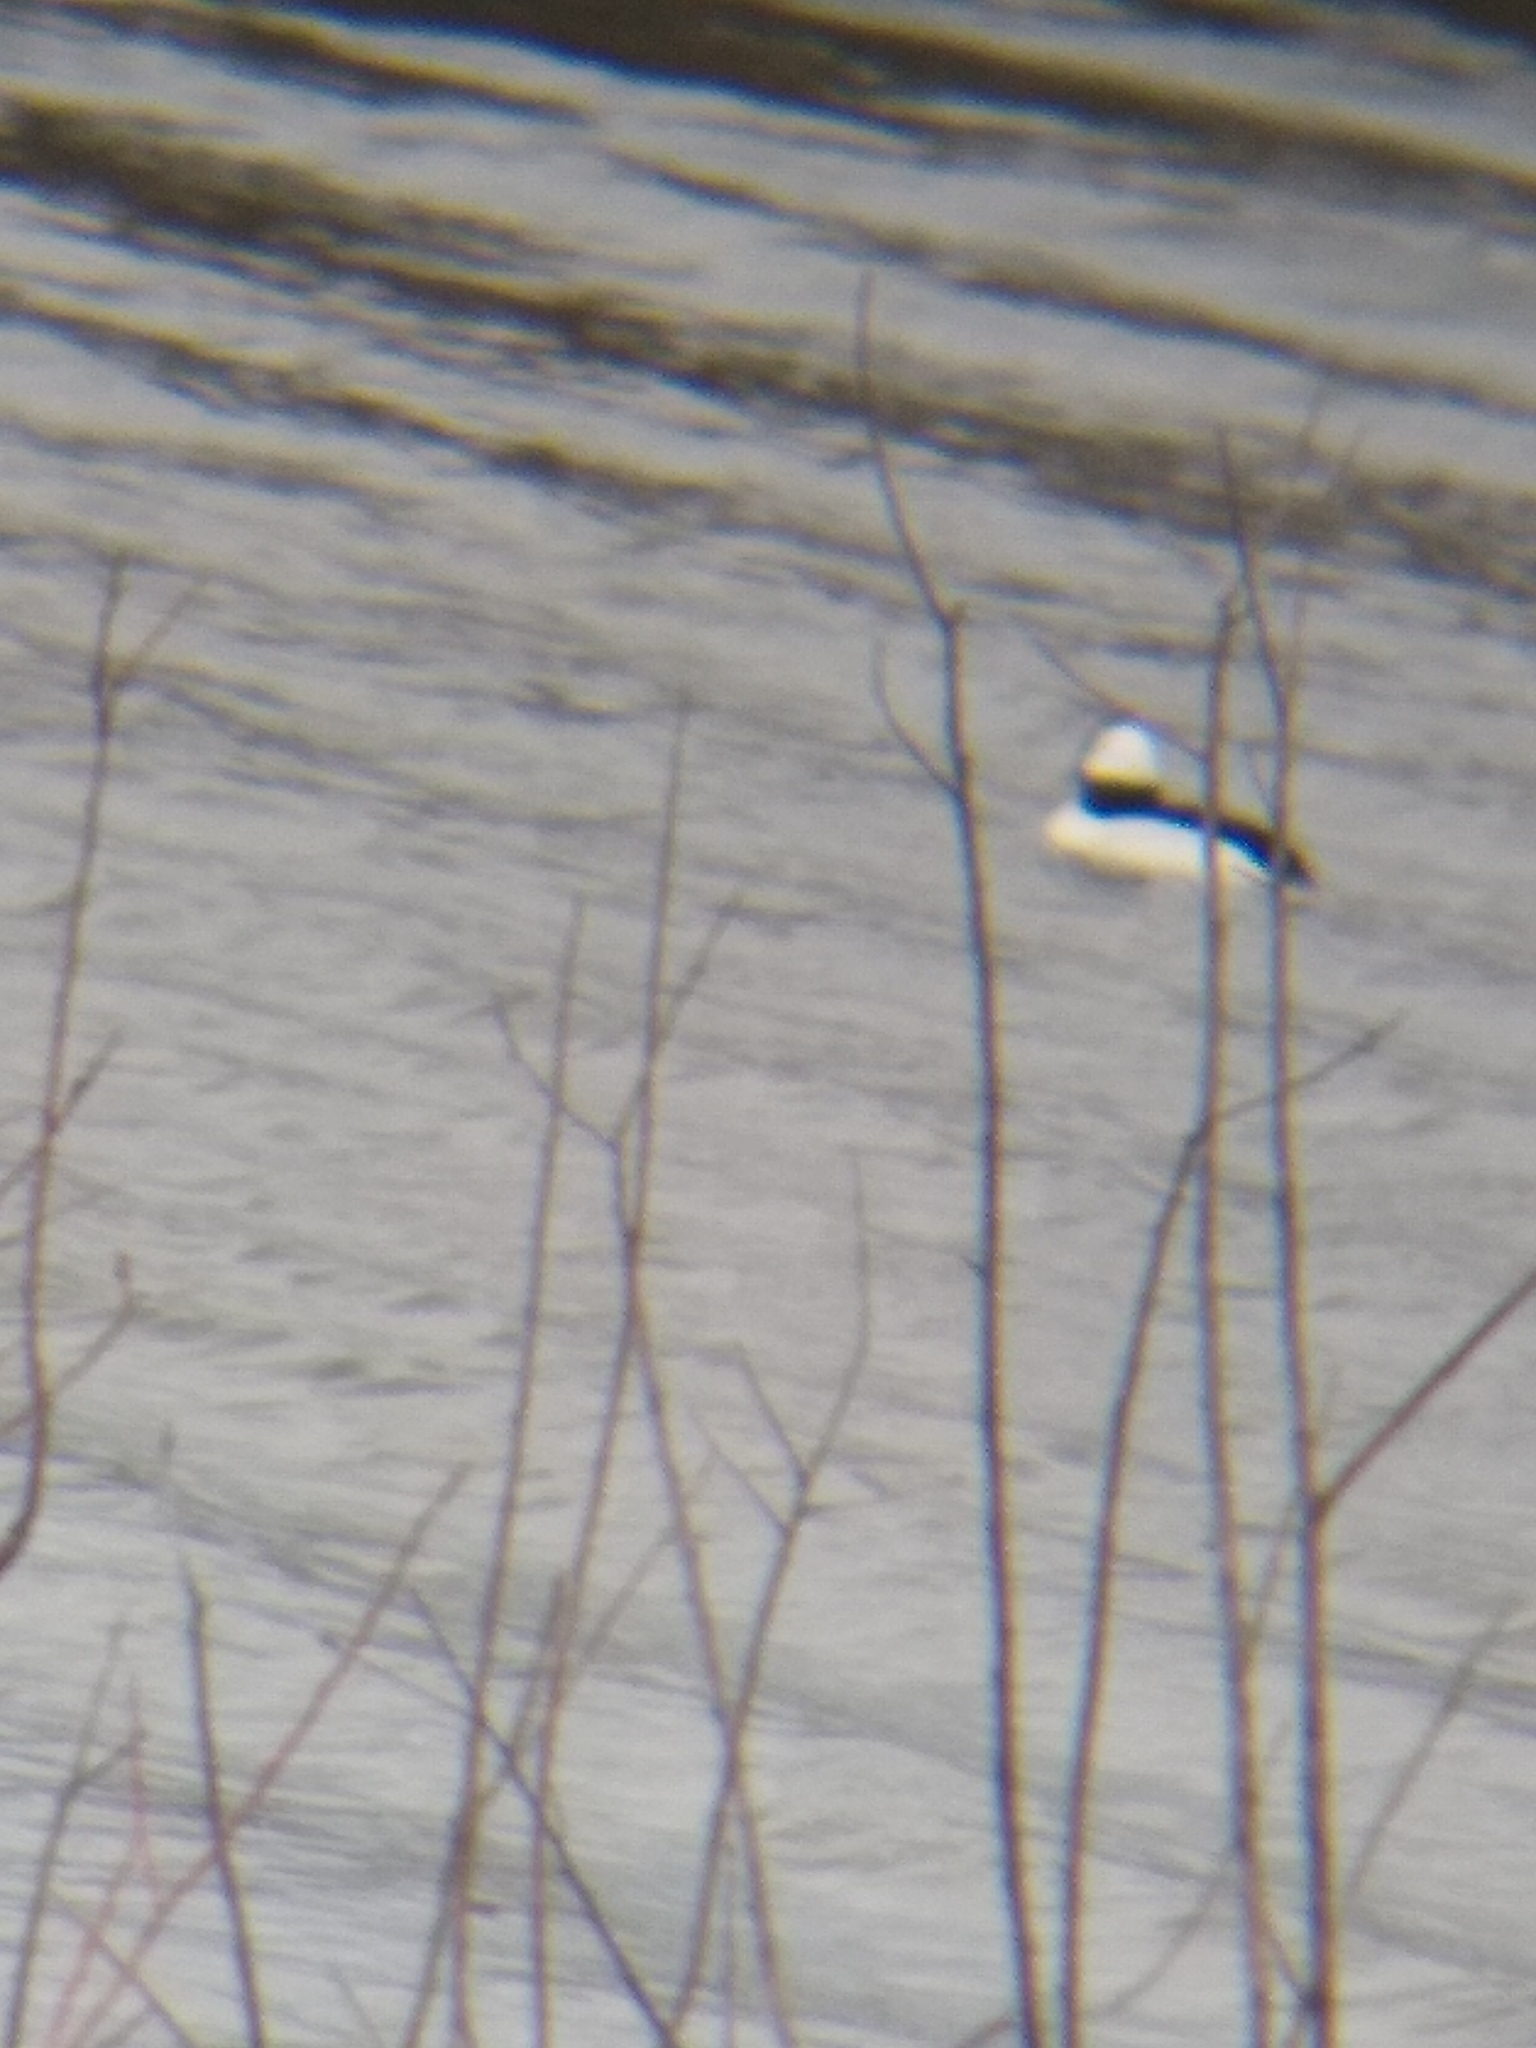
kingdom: Animalia
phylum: Chordata
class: Aves
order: Anseriformes
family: Anatidae
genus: Bucephala
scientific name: Bucephala albeola
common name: Bufflehead
